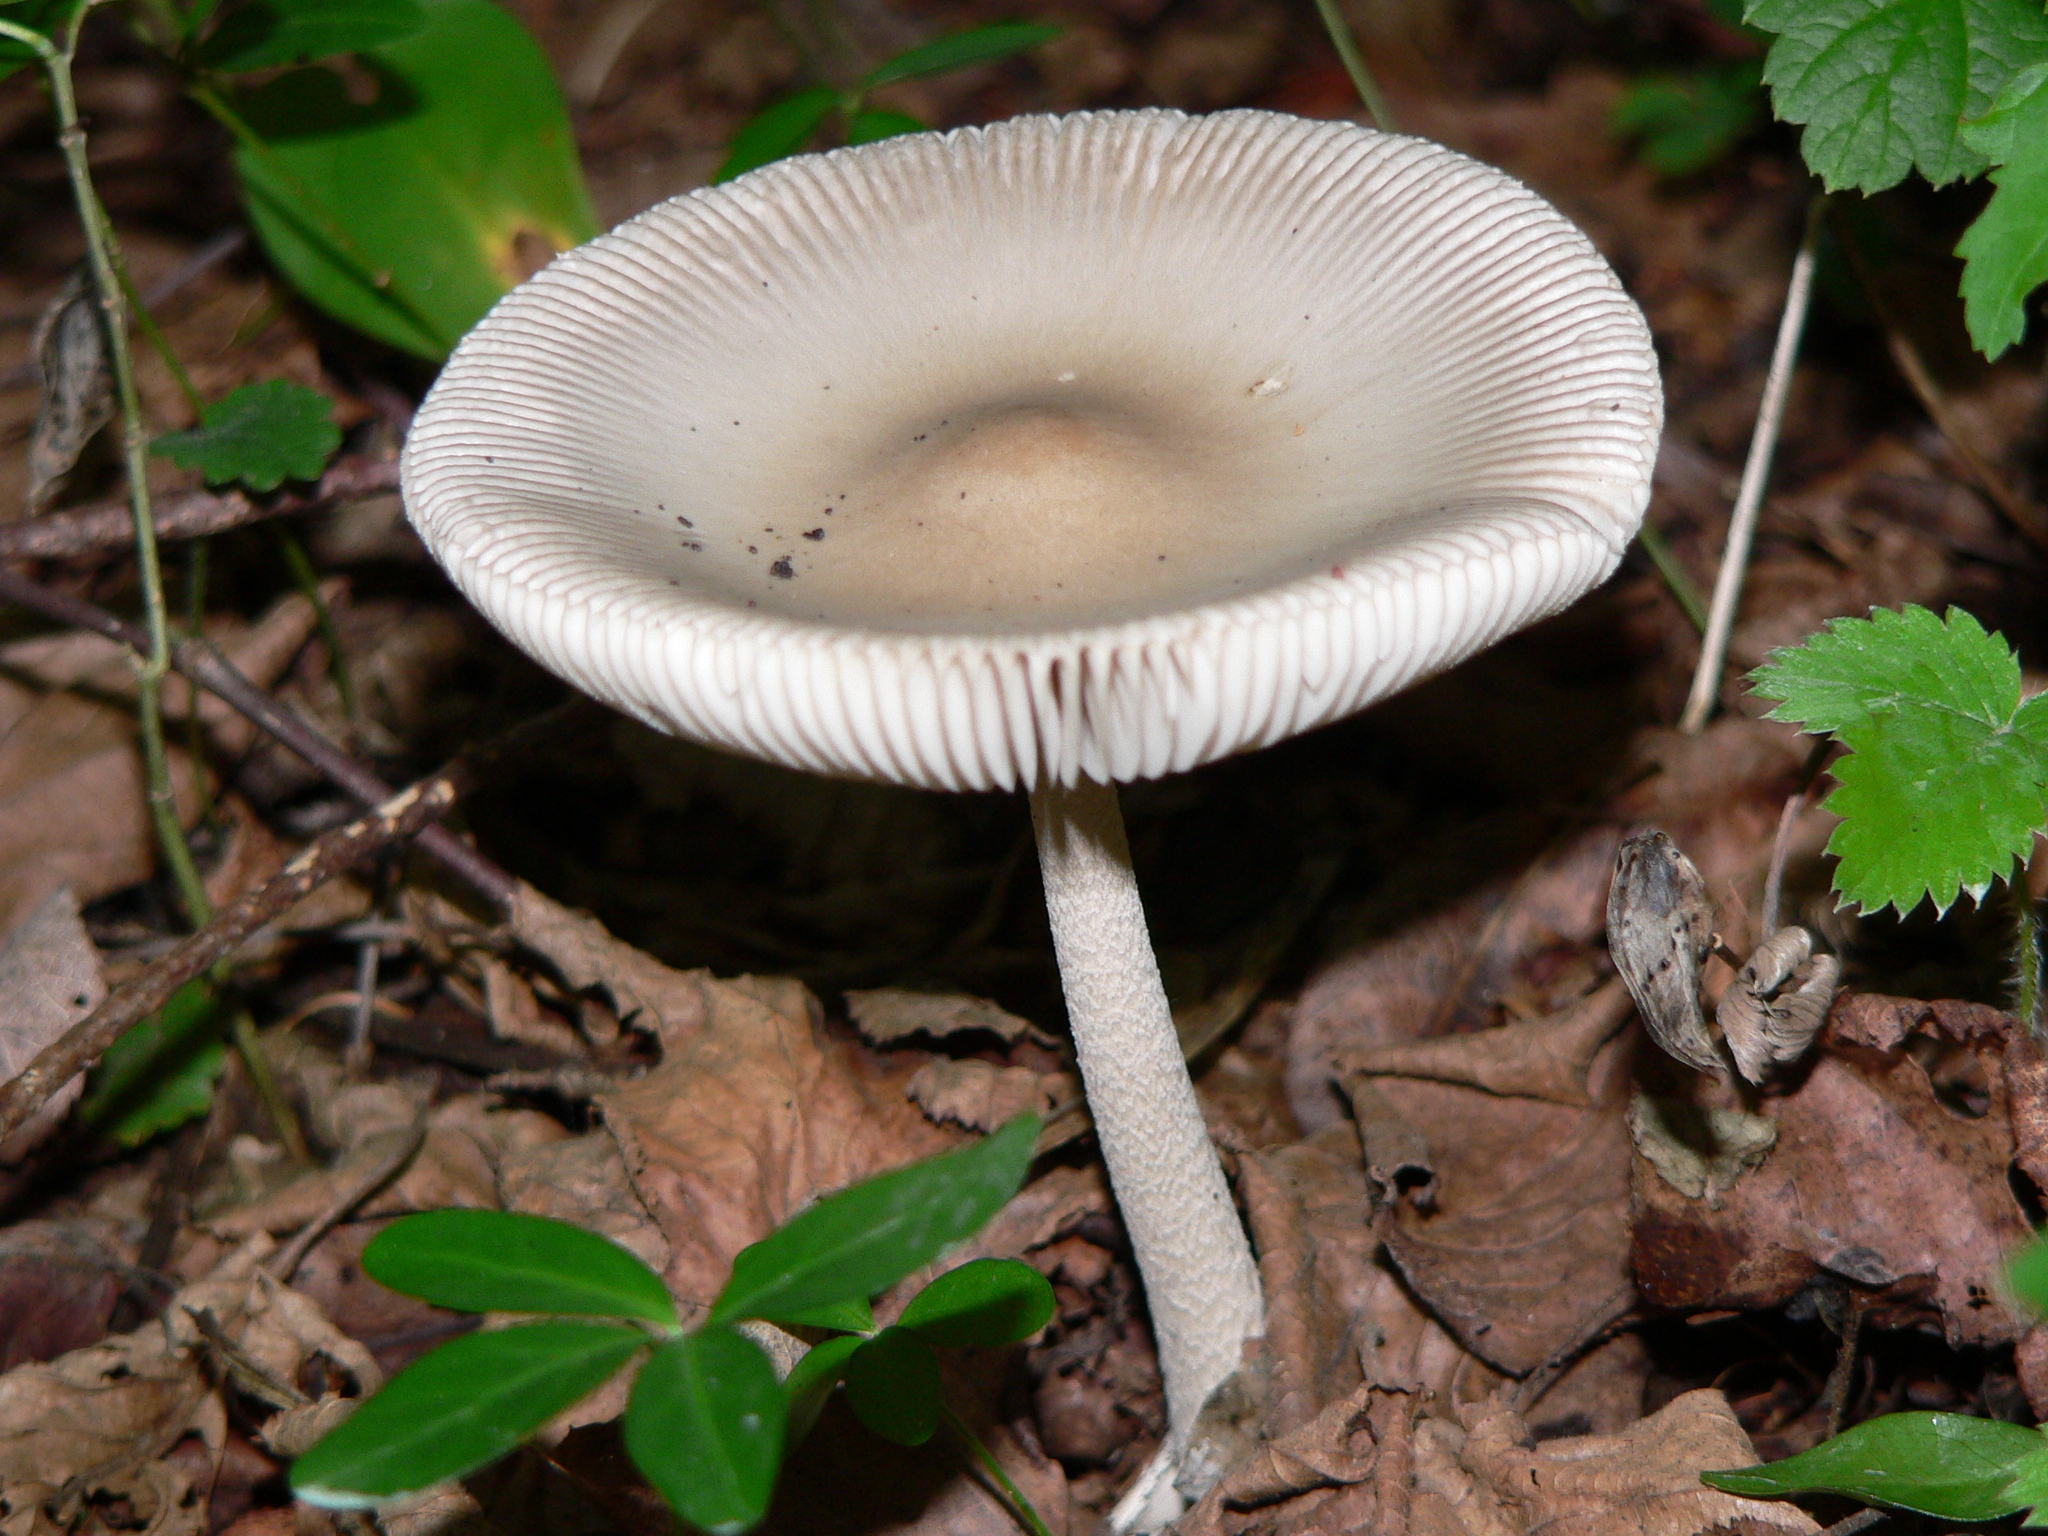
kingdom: Fungi
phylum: Basidiomycota
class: Agaricomycetes
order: Agaricales
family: Amanitaceae
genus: Amanita
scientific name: Amanita vaginata
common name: Grisette
